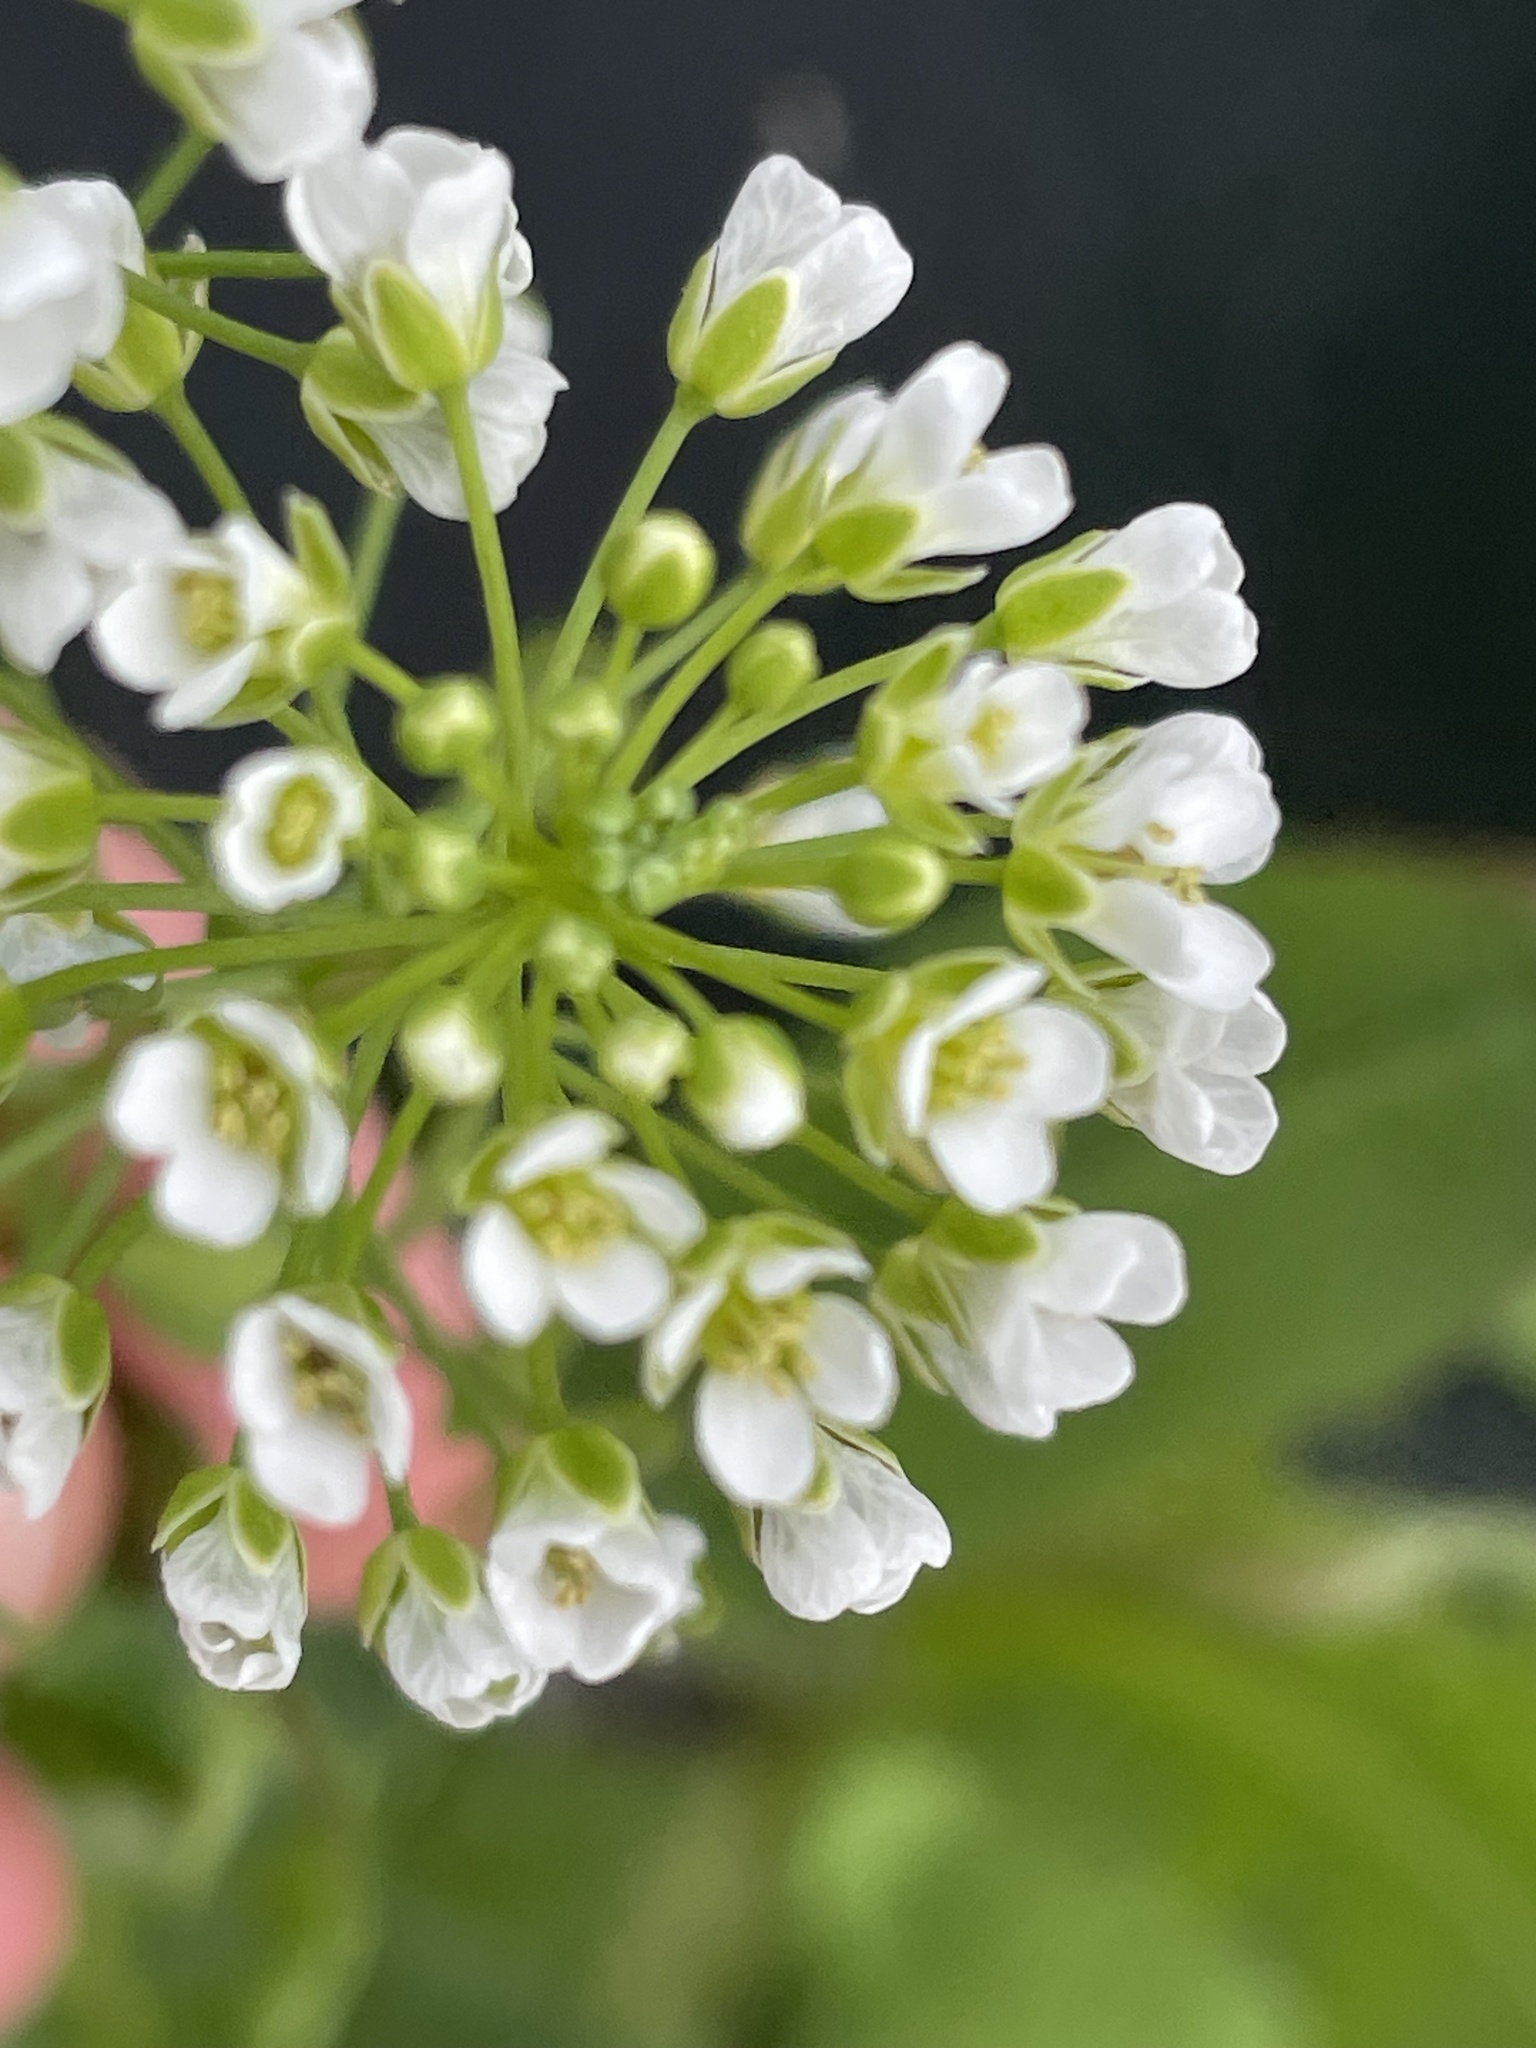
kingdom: Plantae
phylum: Tracheophyta
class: Magnoliopsida
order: Brassicales
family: Brassicaceae
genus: Thlaspi
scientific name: Thlaspi arvense
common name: Field pennycress
